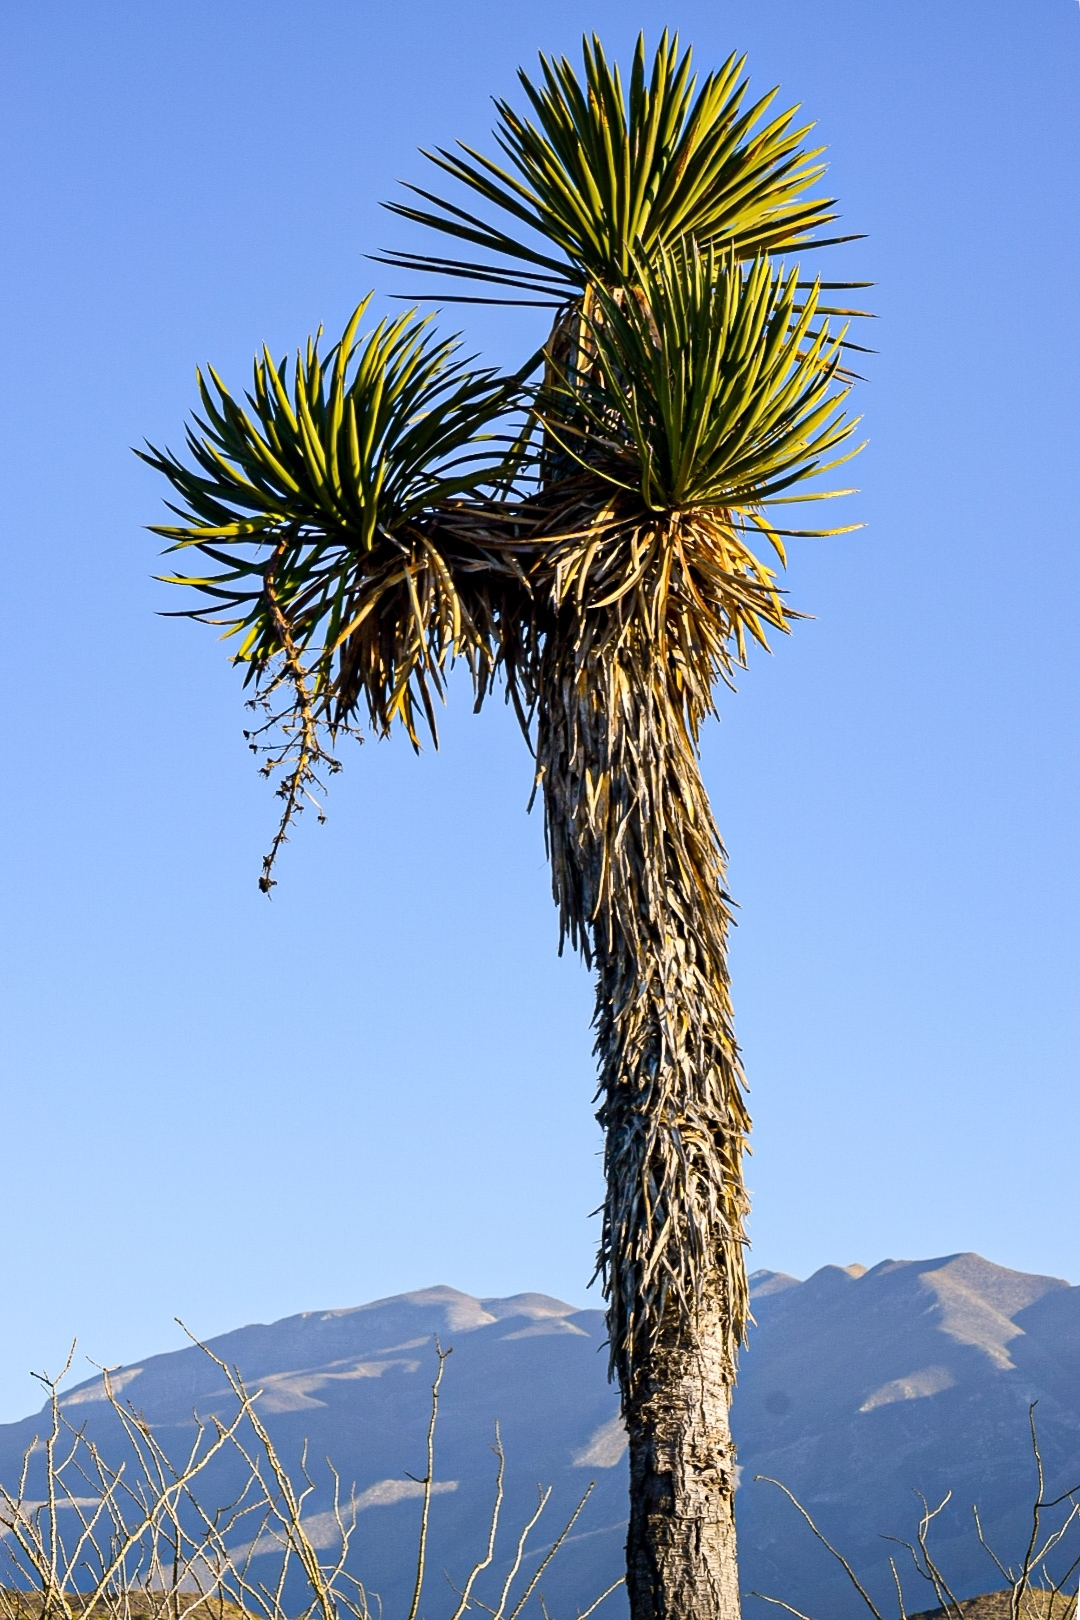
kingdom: Plantae
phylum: Tracheophyta
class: Liliopsida
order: Asparagales
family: Asparagaceae
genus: Yucca
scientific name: Yucca filifera
